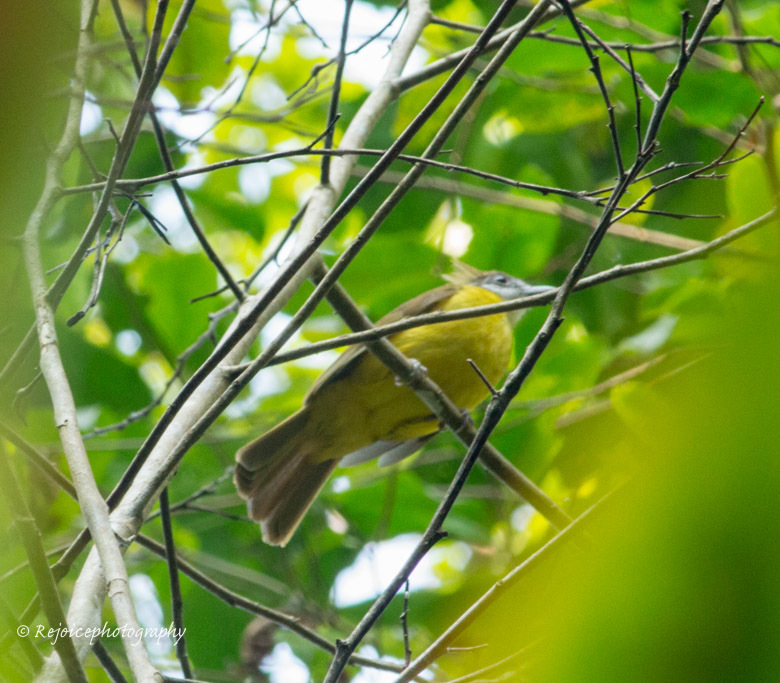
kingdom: Animalia
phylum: Chordata
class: Aves
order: Passeriformes
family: Pycnonotidae
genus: Alophoixus
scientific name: Alophoixus flaveolus
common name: White-throated bulbul
